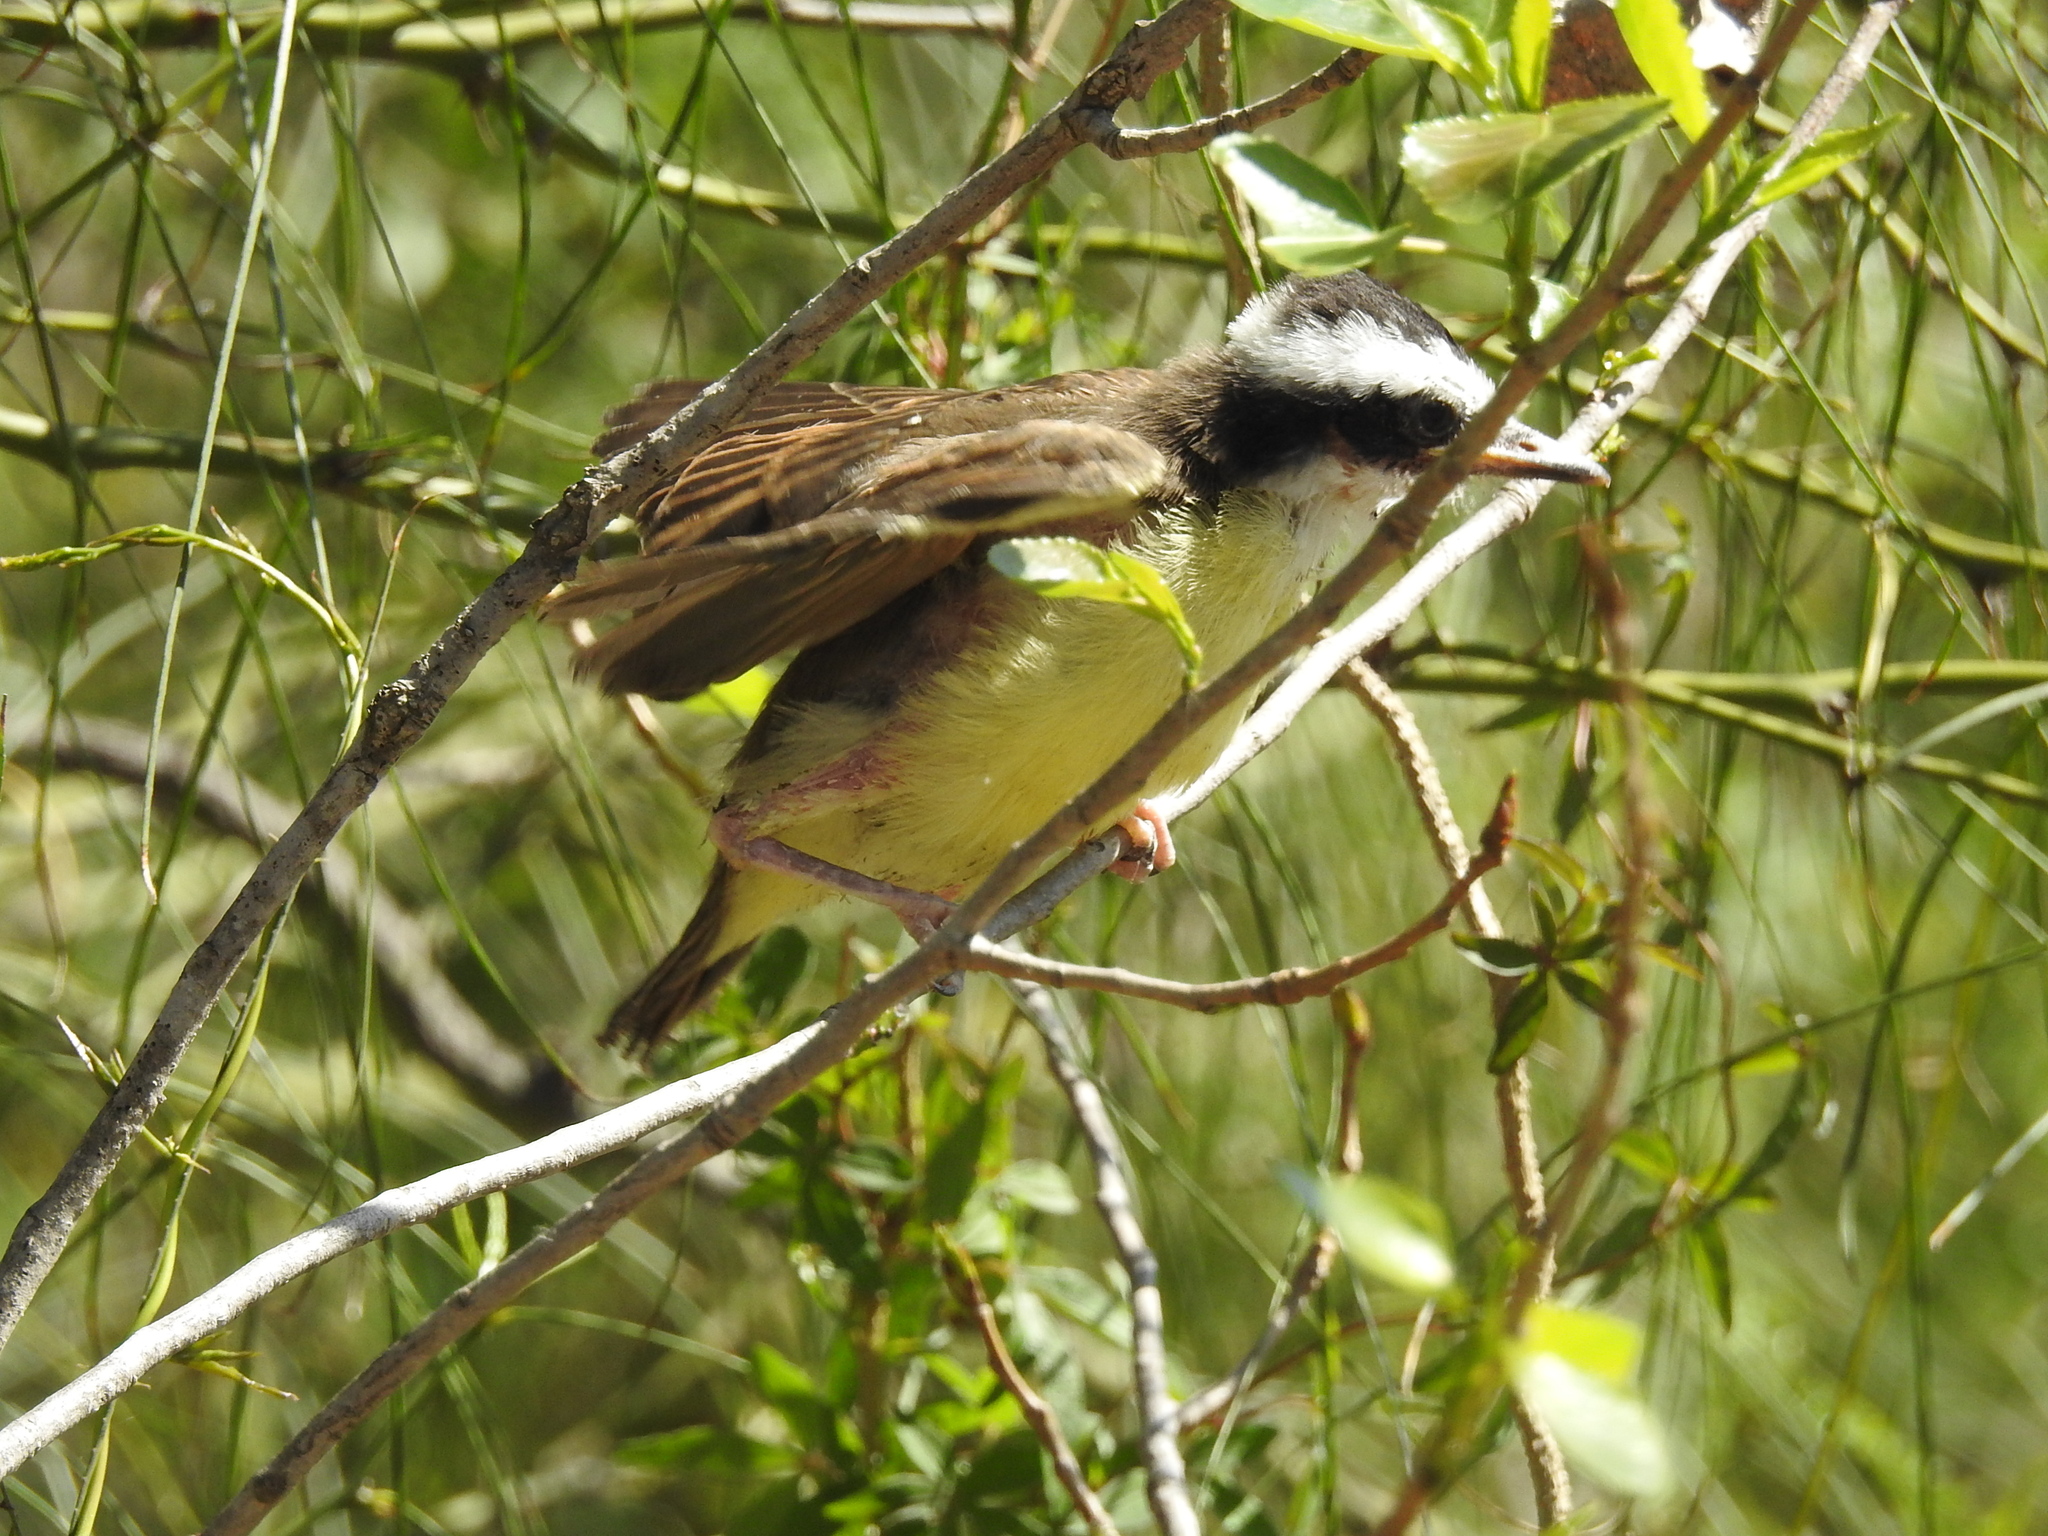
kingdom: Animalia
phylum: Chordata
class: Aves
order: Passeriformes
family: Tyrannidae
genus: Pitangus
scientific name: Pitangus sulphuratus
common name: Great kiskadee
